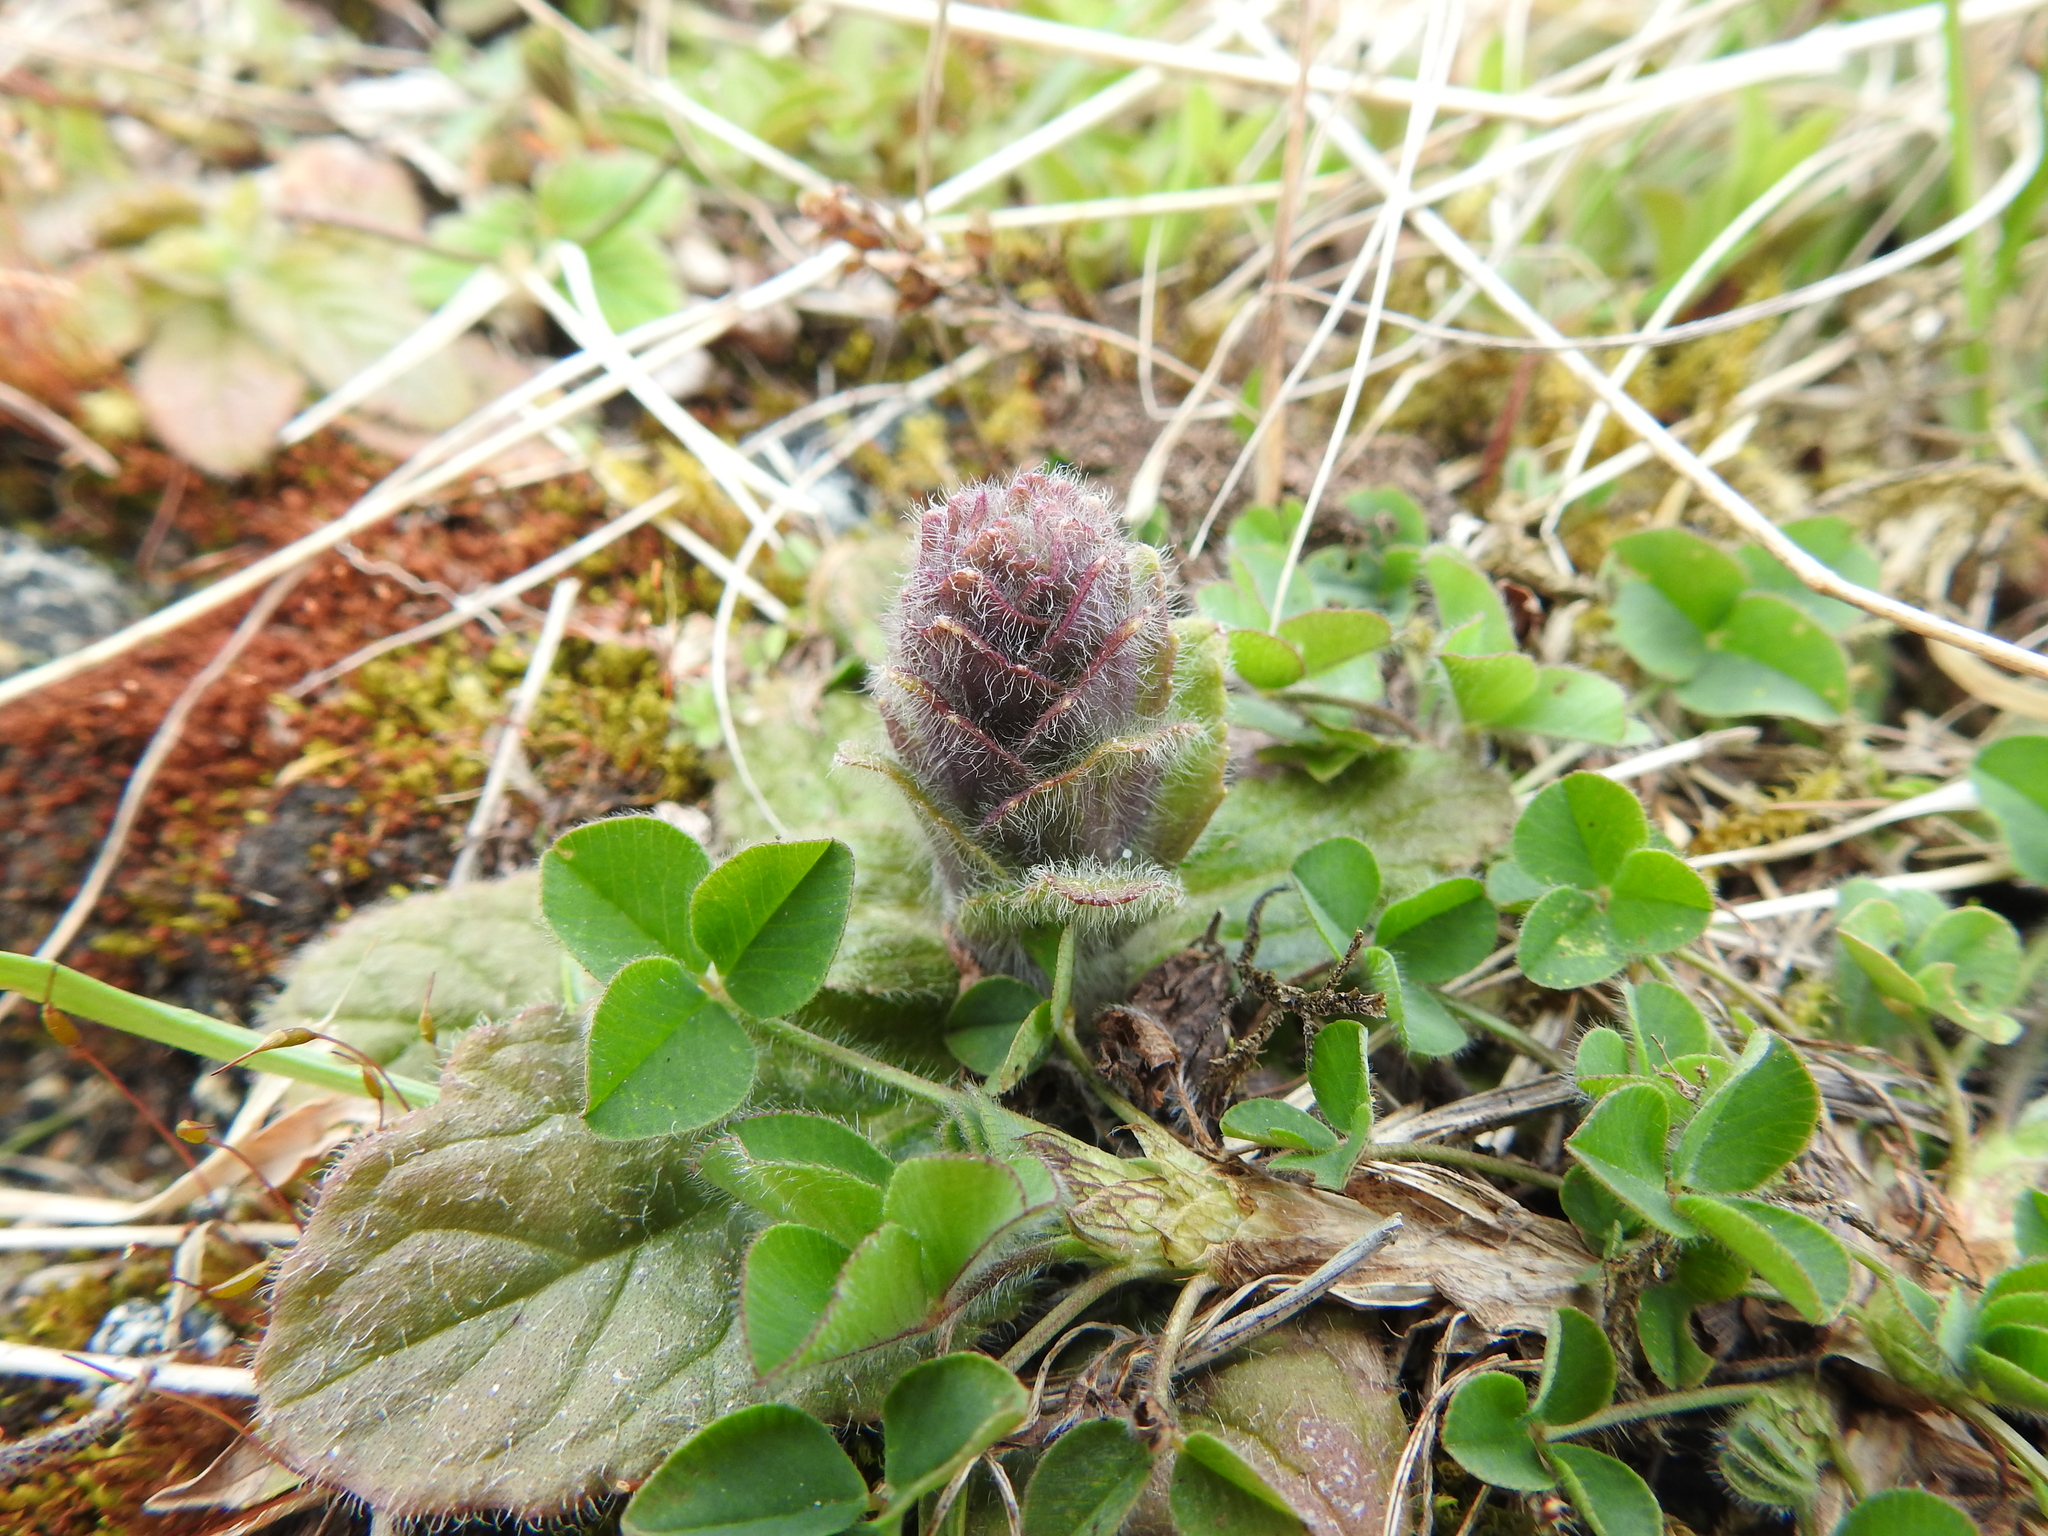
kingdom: Plantae
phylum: Tracheophyta
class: Magnoliopsida
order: Lamiales
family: Lamiaceae
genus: Ajuga
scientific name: Ajuga pyramidalis
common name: Pyramid bugle
